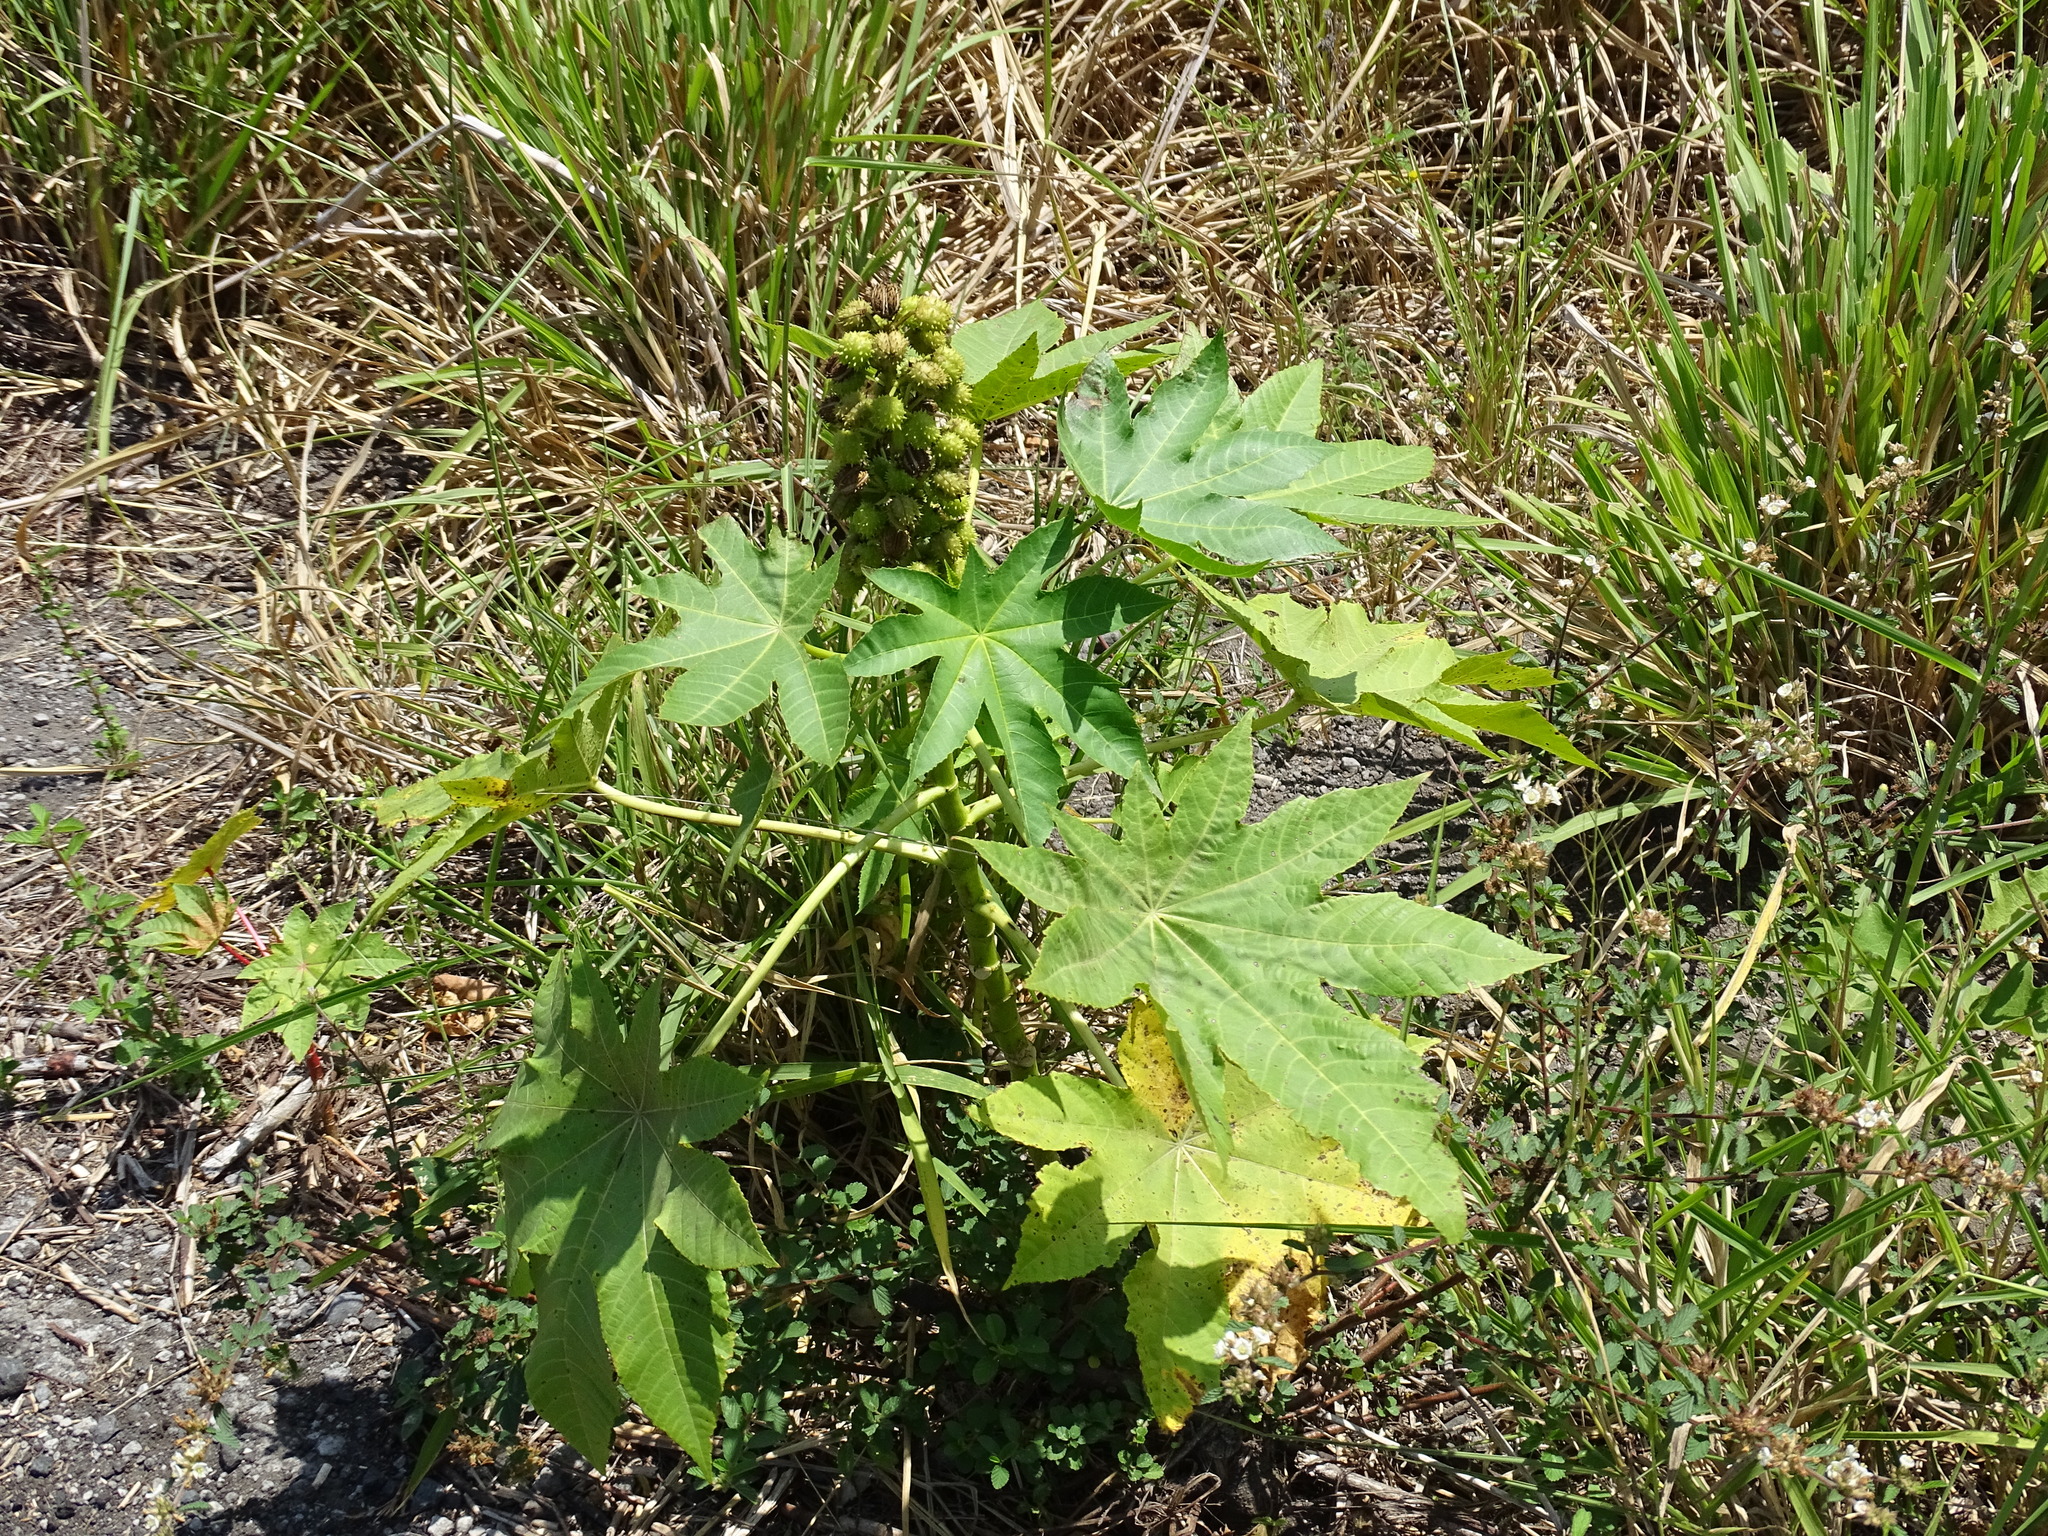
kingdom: Plantae
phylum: Tracheophyta
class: Magnoliopsida
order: Malpighiales
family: Euphorbiaceae
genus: Ricinus
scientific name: Ricinus communis
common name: Castor-oil-plant
